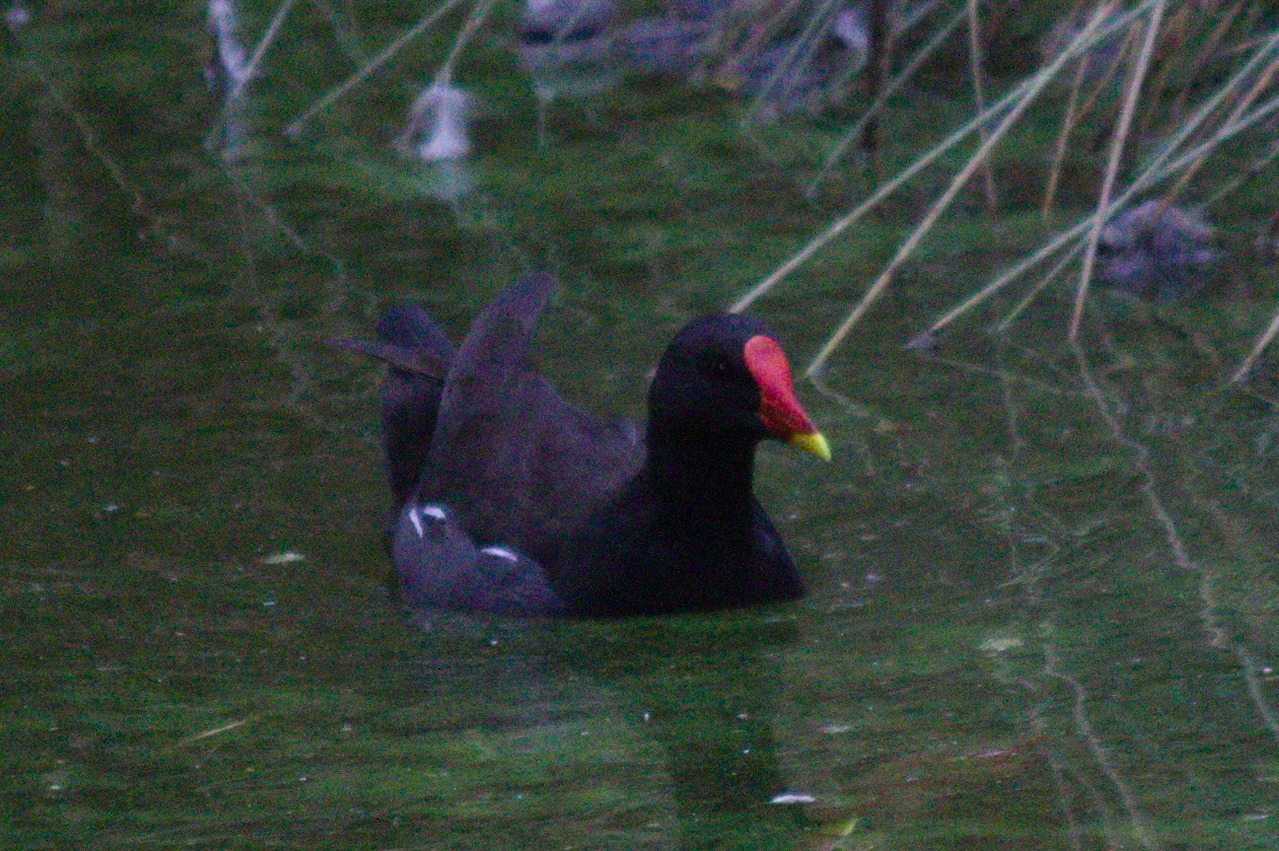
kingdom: Animalia
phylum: Chordata
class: Aves
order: Gruiformes
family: Rallidae
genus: Gallinula
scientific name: Gallinula chloropus
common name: Common moorhen
